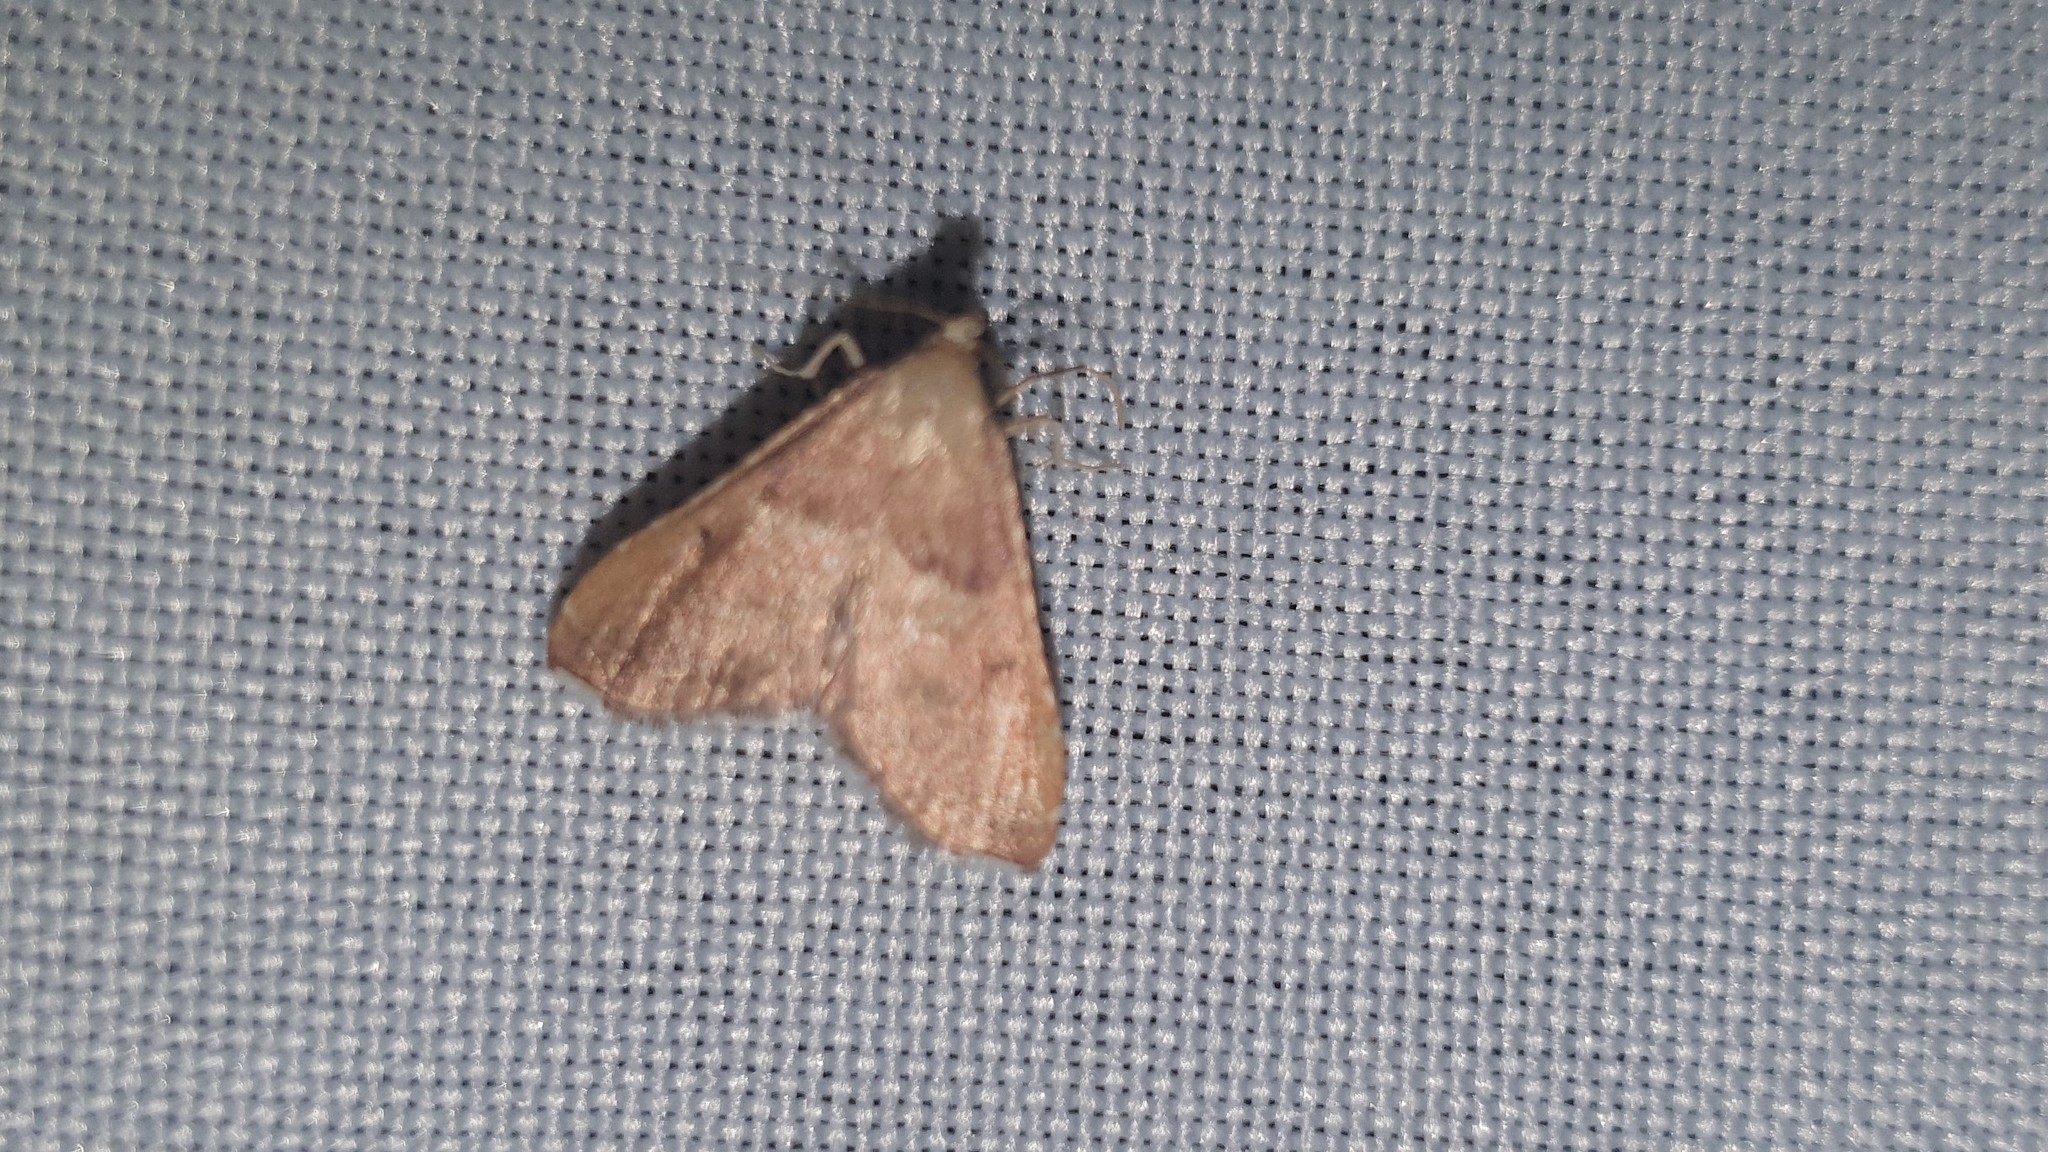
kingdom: Animalia
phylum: Arthropoda
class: Insecta
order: Lepidoptera
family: Pyralidae
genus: Endotricha
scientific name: Endotricha flammealis
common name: Rosy tabby
